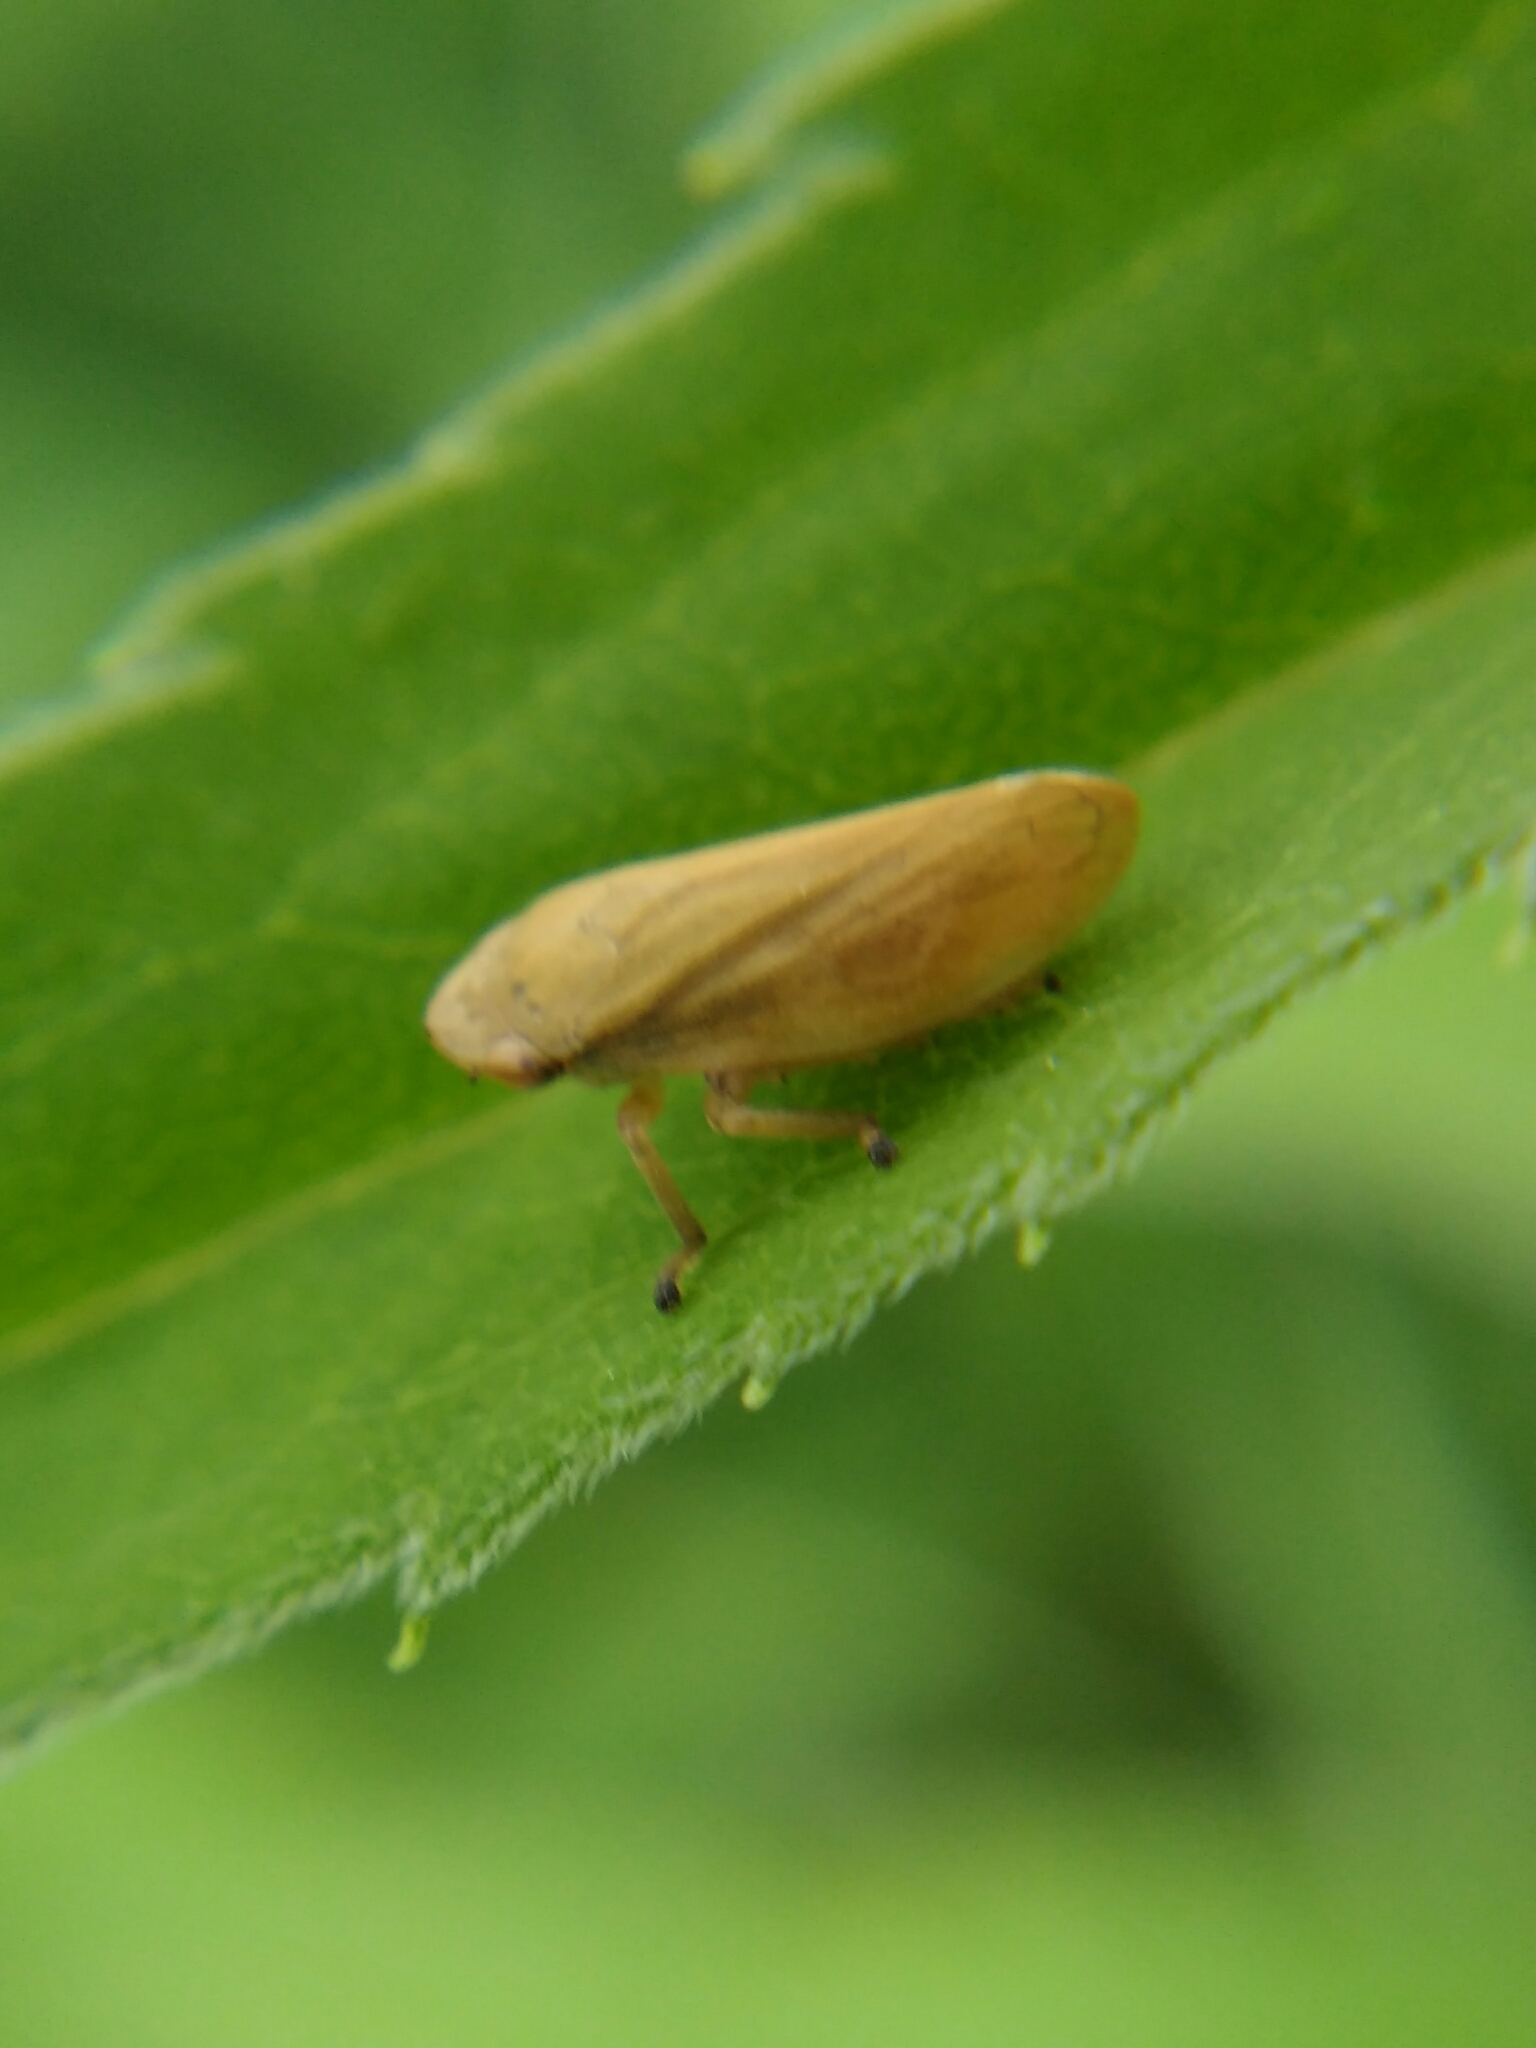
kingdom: Animalia
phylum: Arthropoda
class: Insecta
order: Hemiptera
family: Aphrophoridae
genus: Philaenus
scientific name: Philaenus spumarius
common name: Meadow spittlebug
